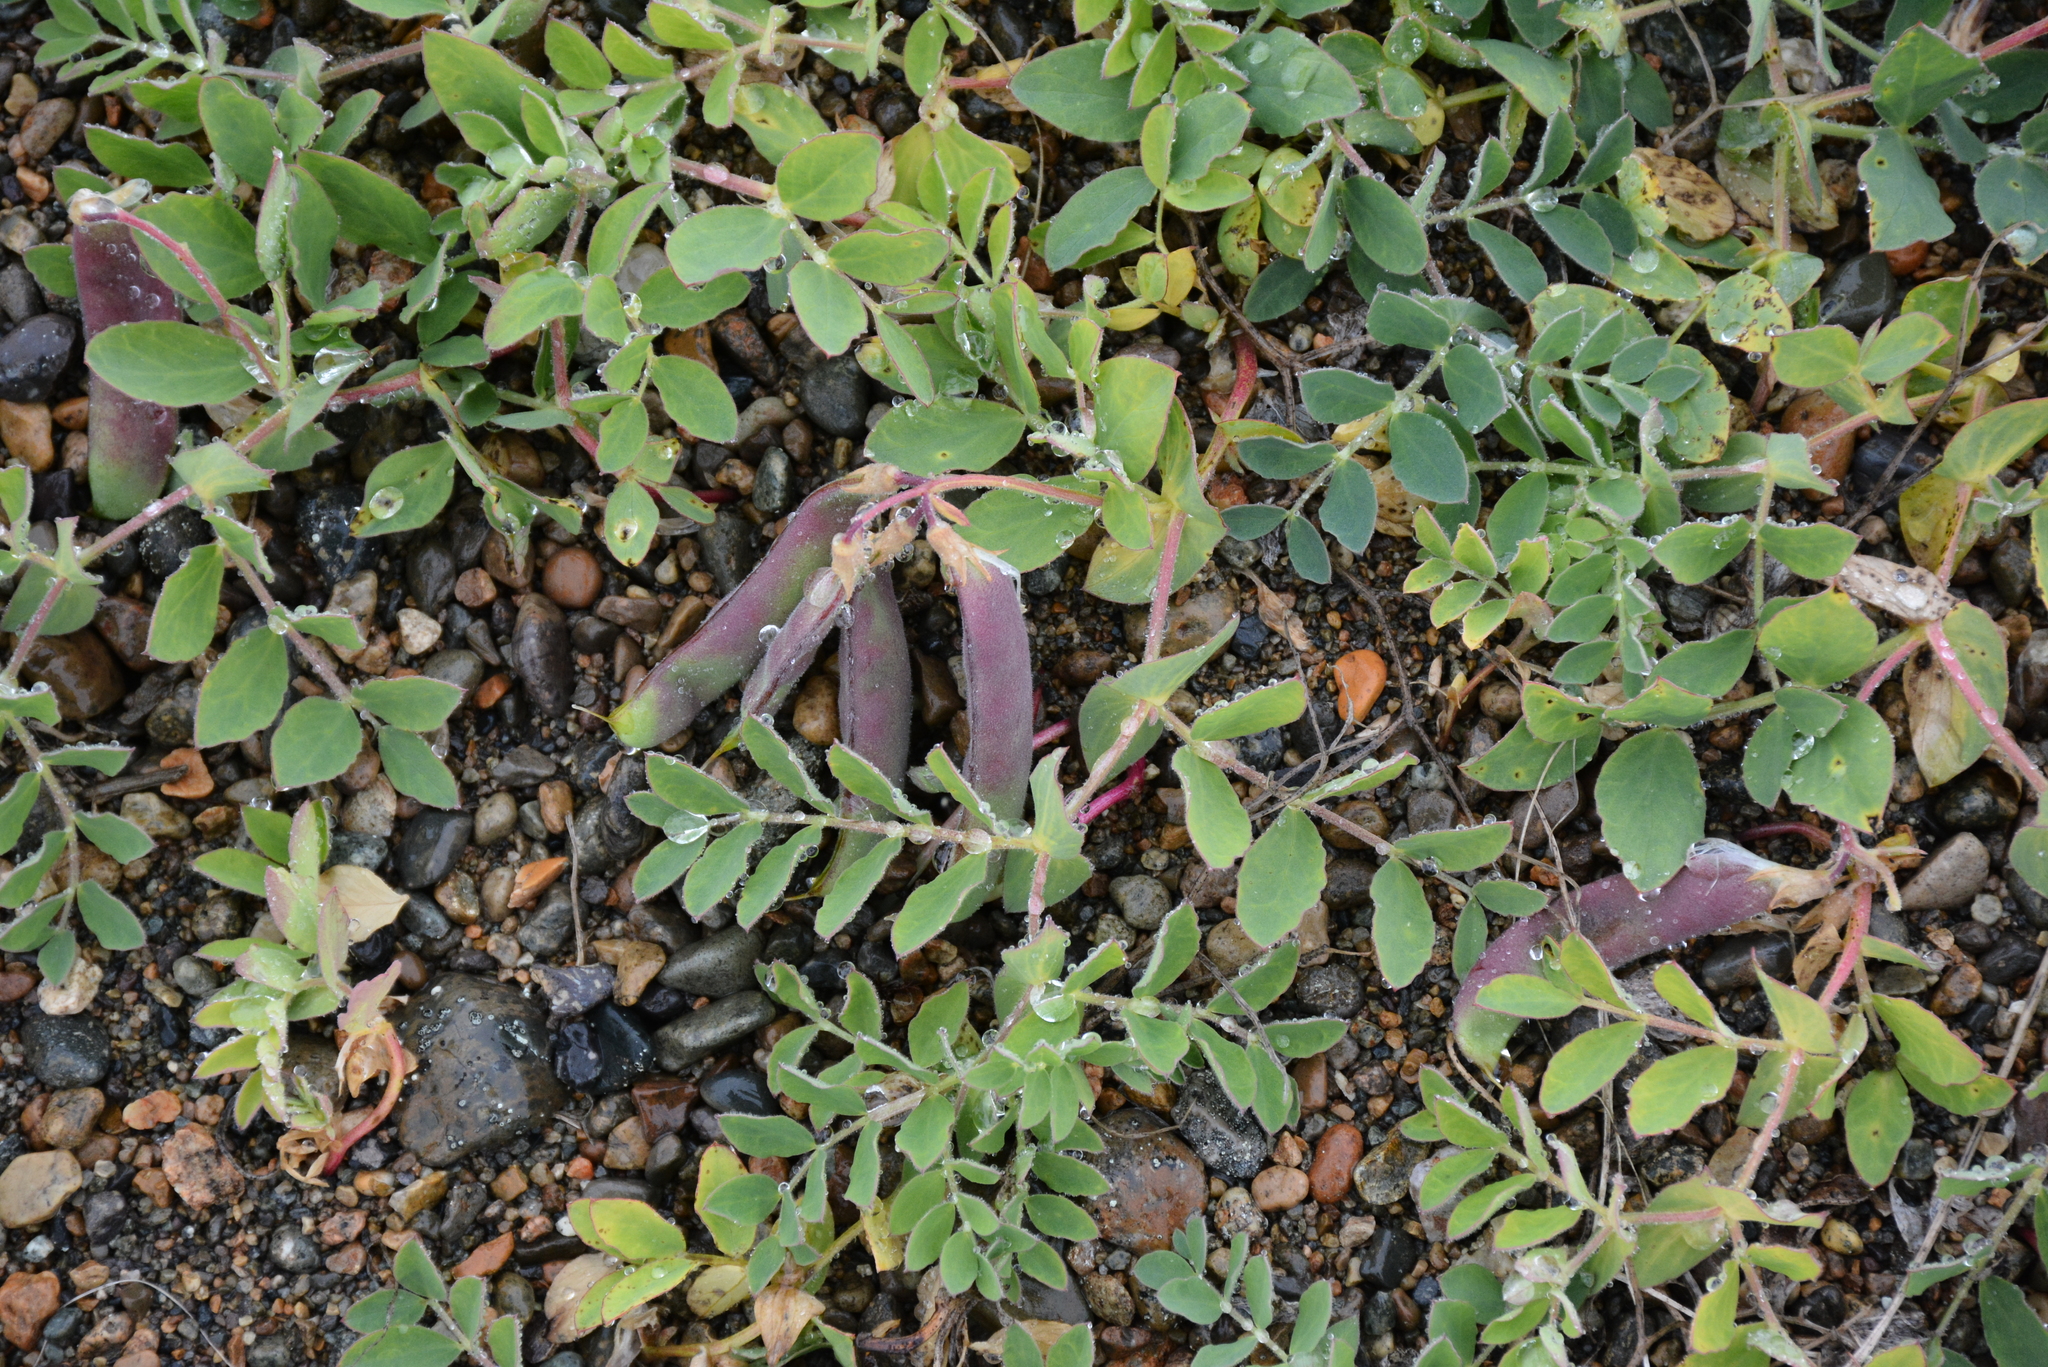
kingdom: Plantae
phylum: Tracheophyta
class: Magnoliopsida
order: Fabales
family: Fabaceae
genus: Lathyrus
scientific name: Lathyrus japonicus
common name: Sea pea
